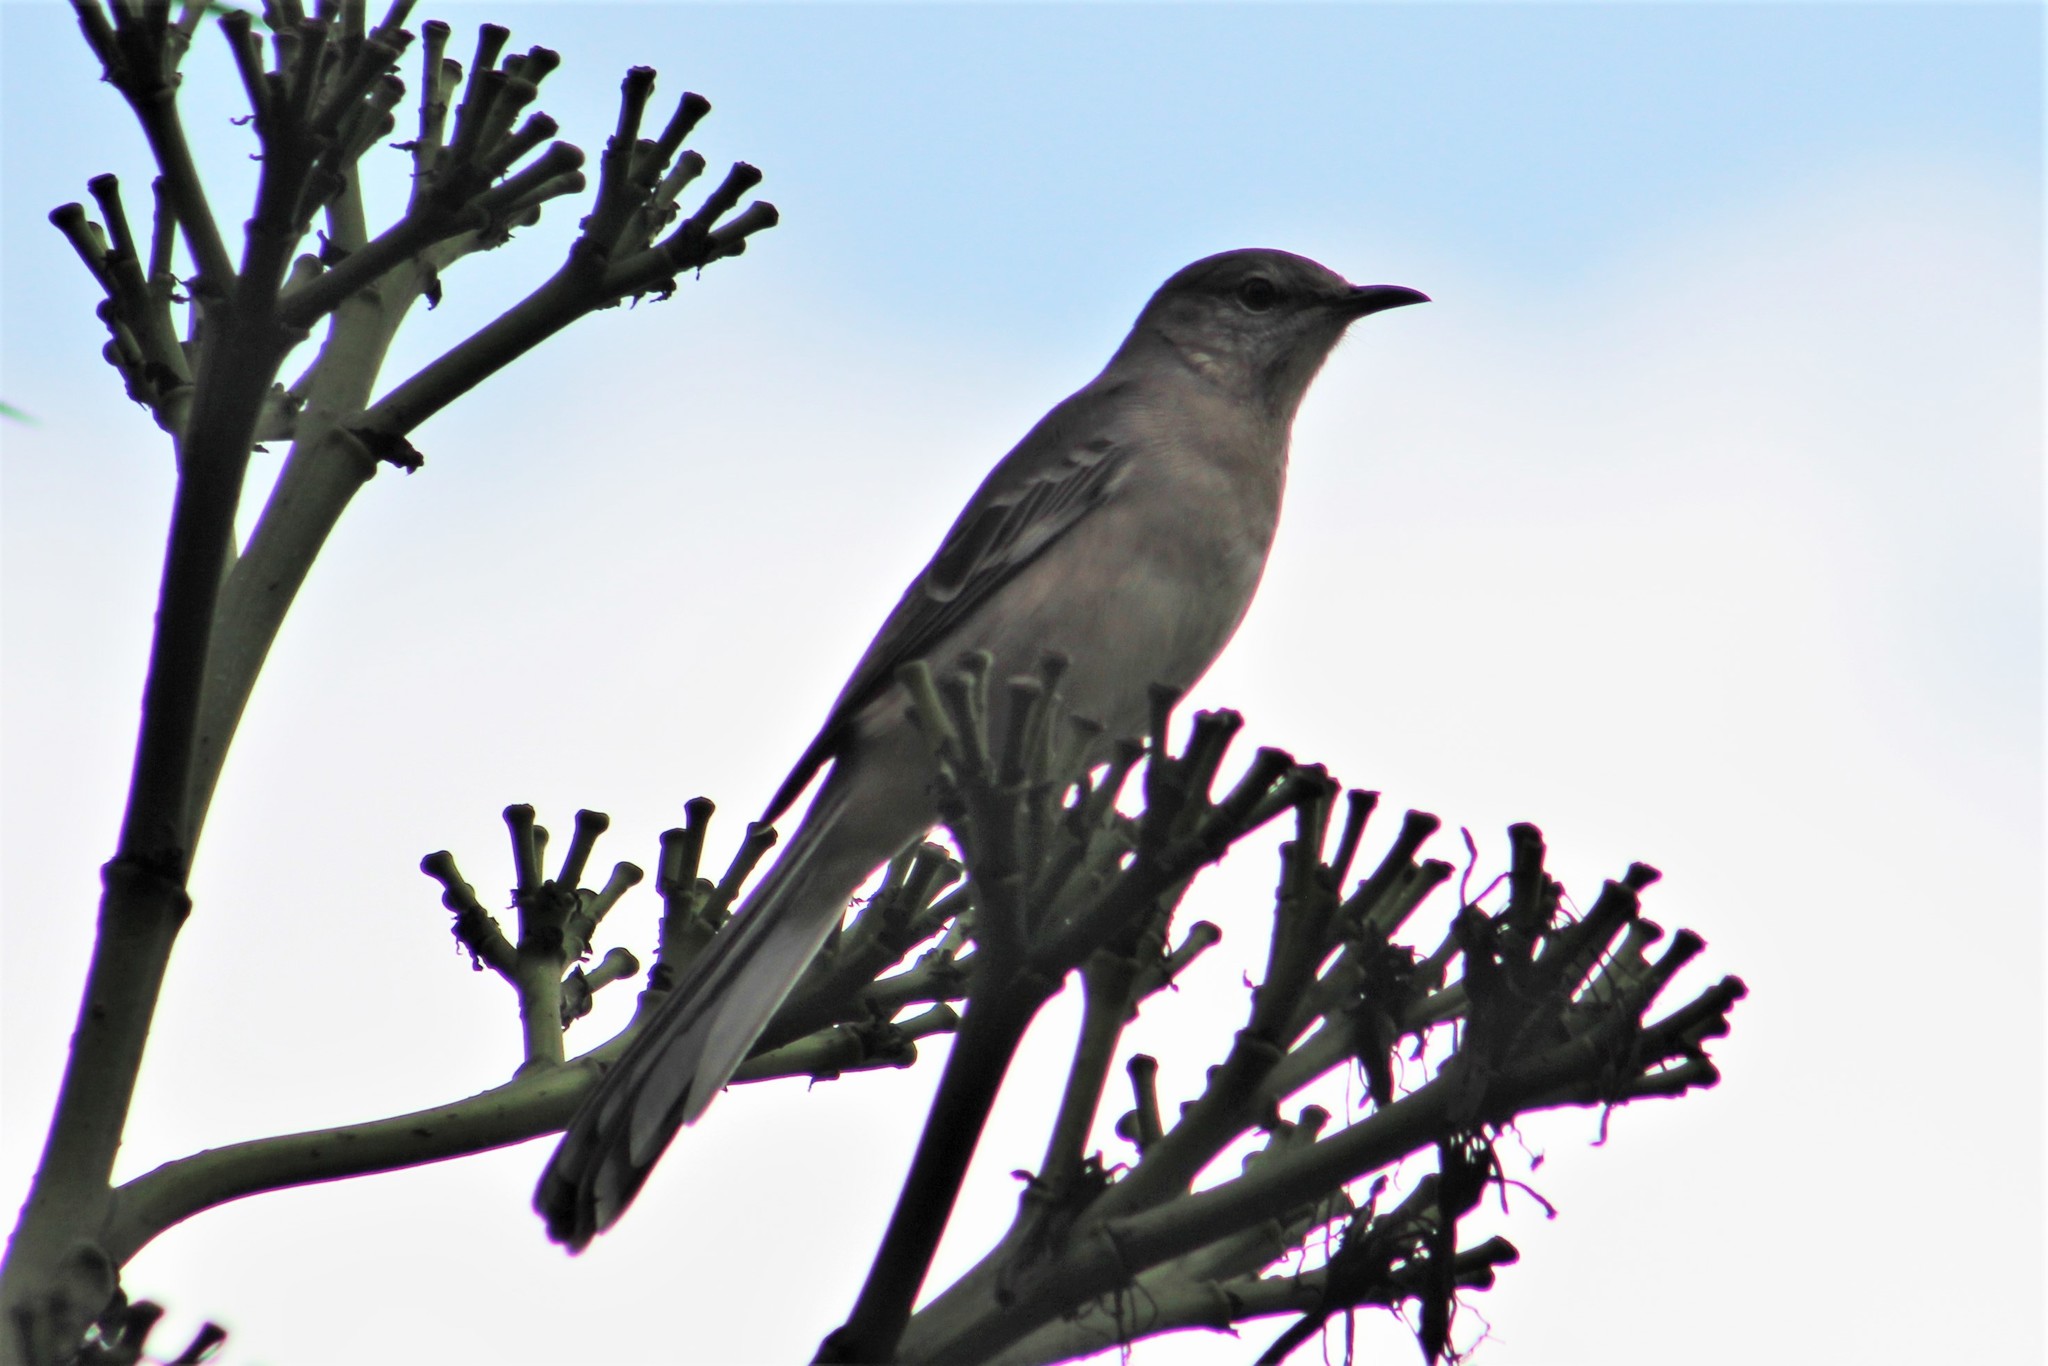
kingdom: Animalia
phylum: Chordata
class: Aves
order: Passeriformes
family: Mimidae
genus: Mimus
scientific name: Mimus polyglottos
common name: Northern mockingbird
